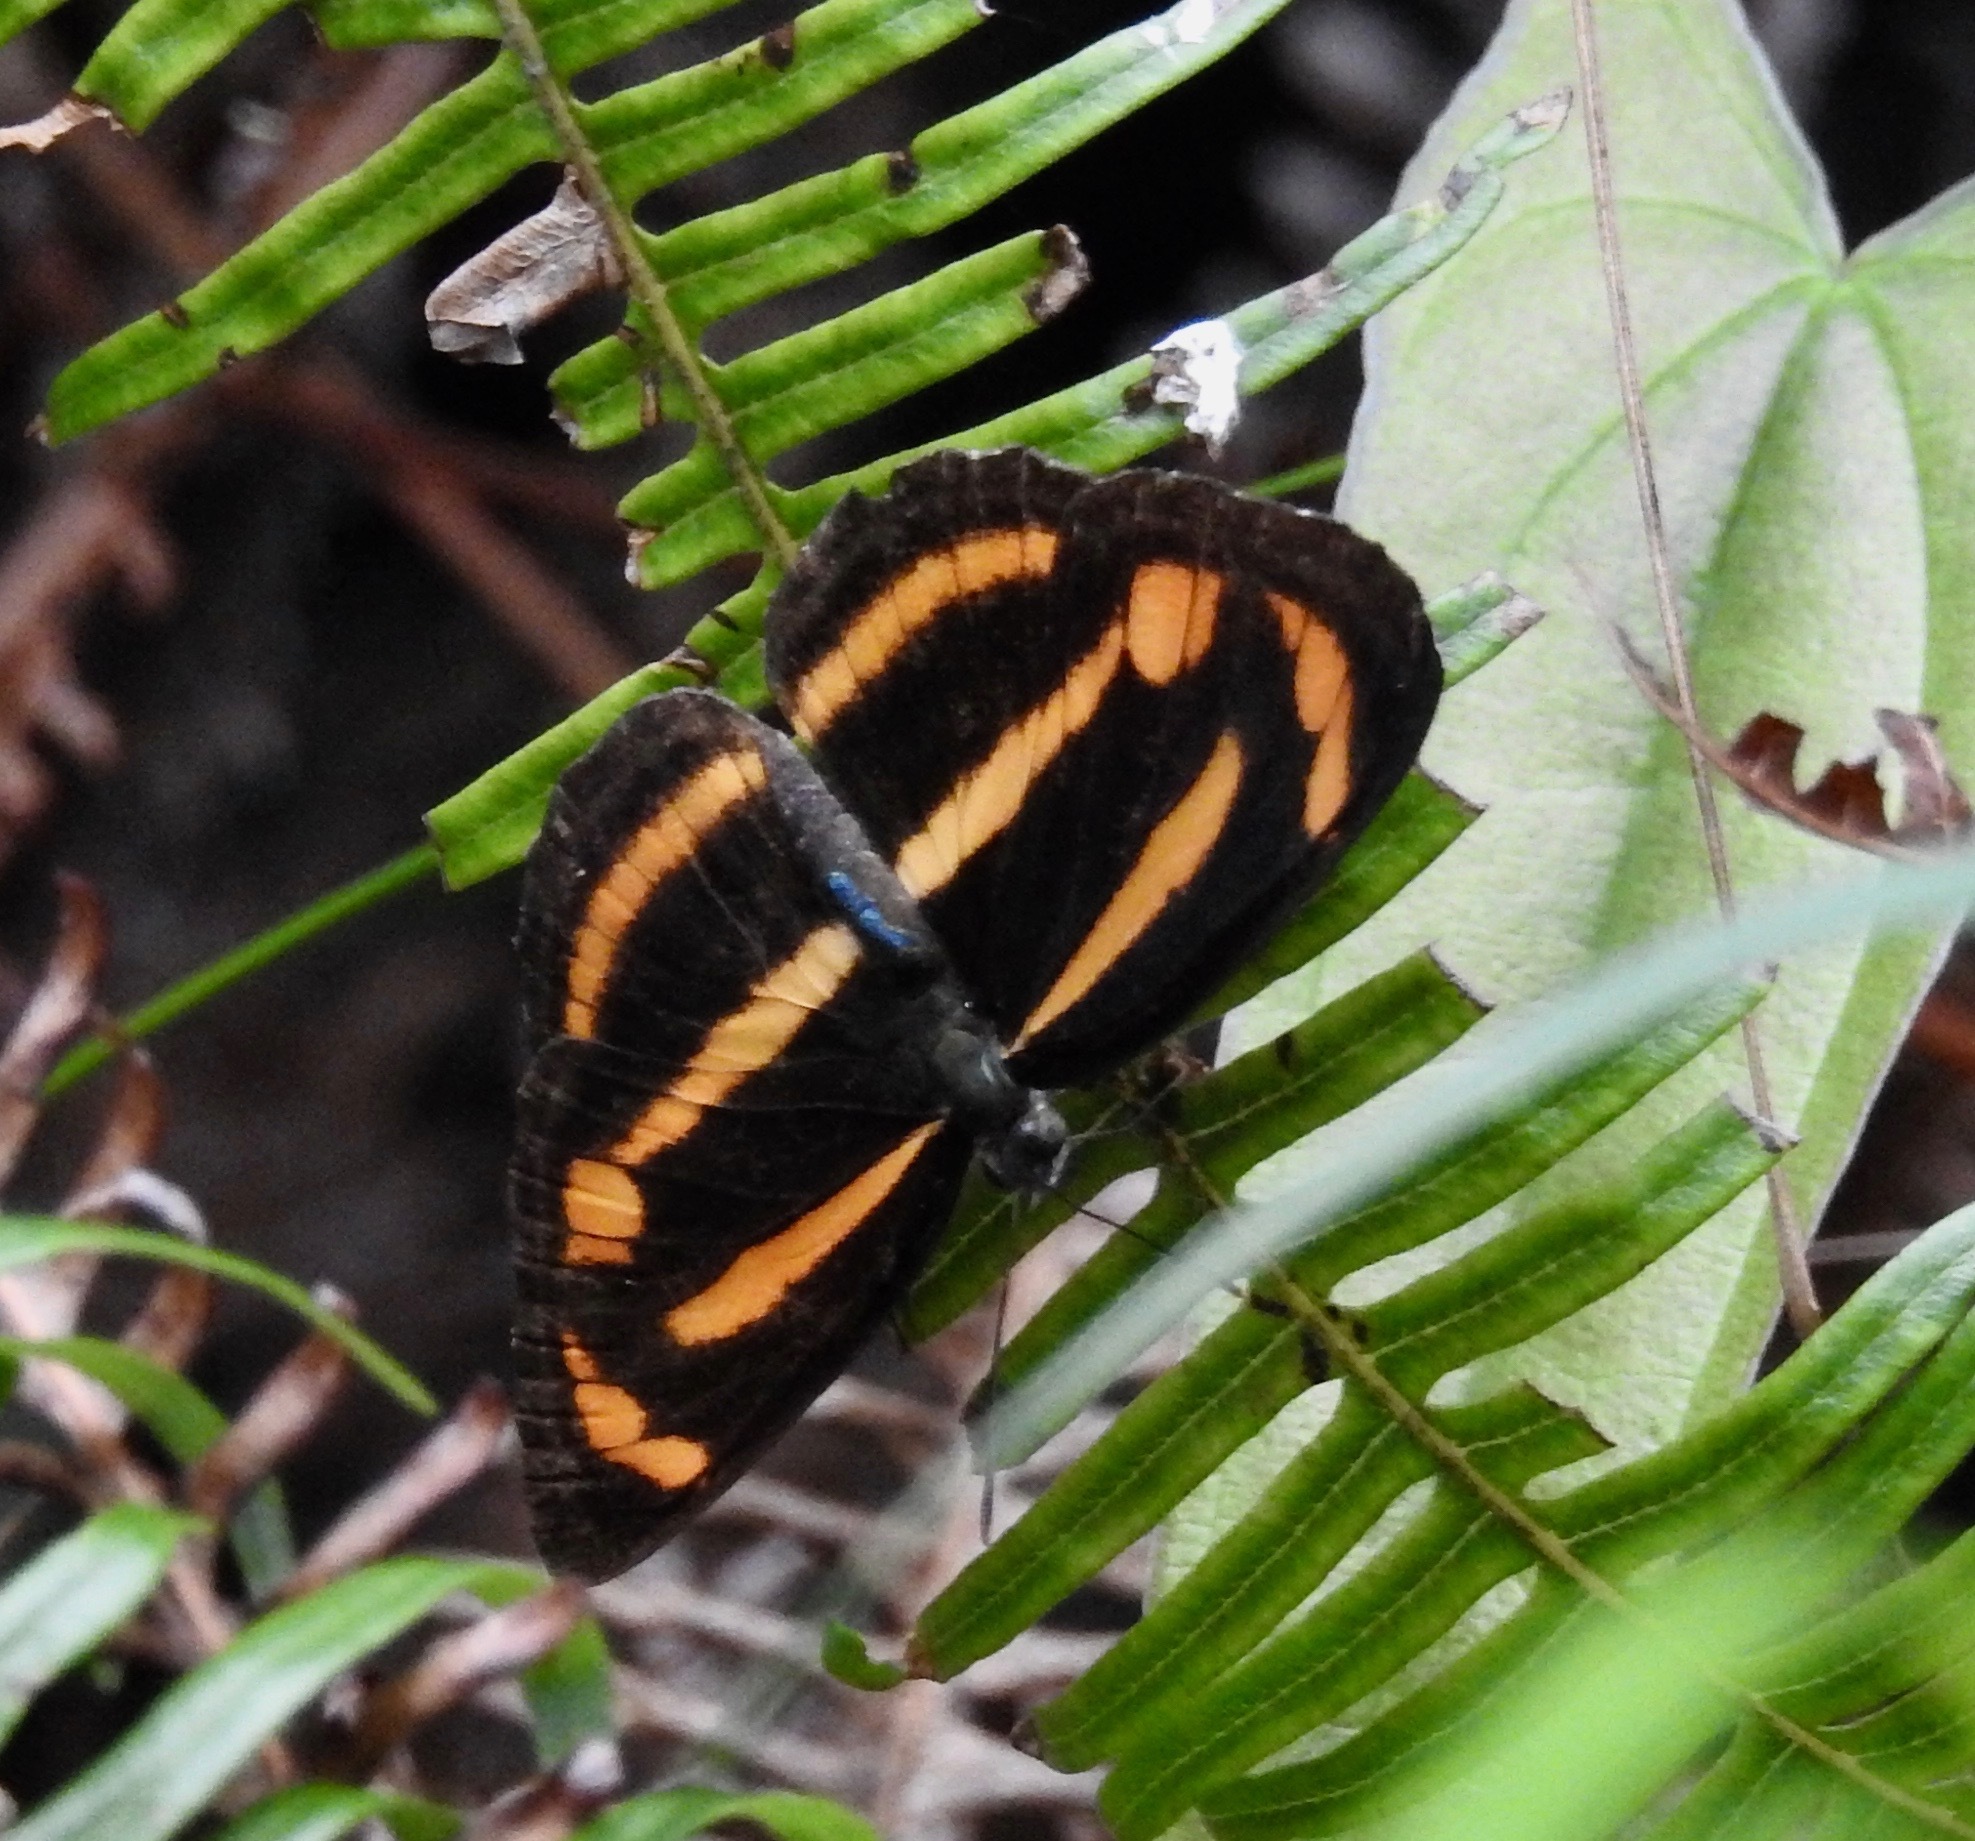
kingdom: Animalia
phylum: Arthropoda
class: Insecta
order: Lepidoptera
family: Nymphalidae
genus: Neptis
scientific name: Neptis miah
